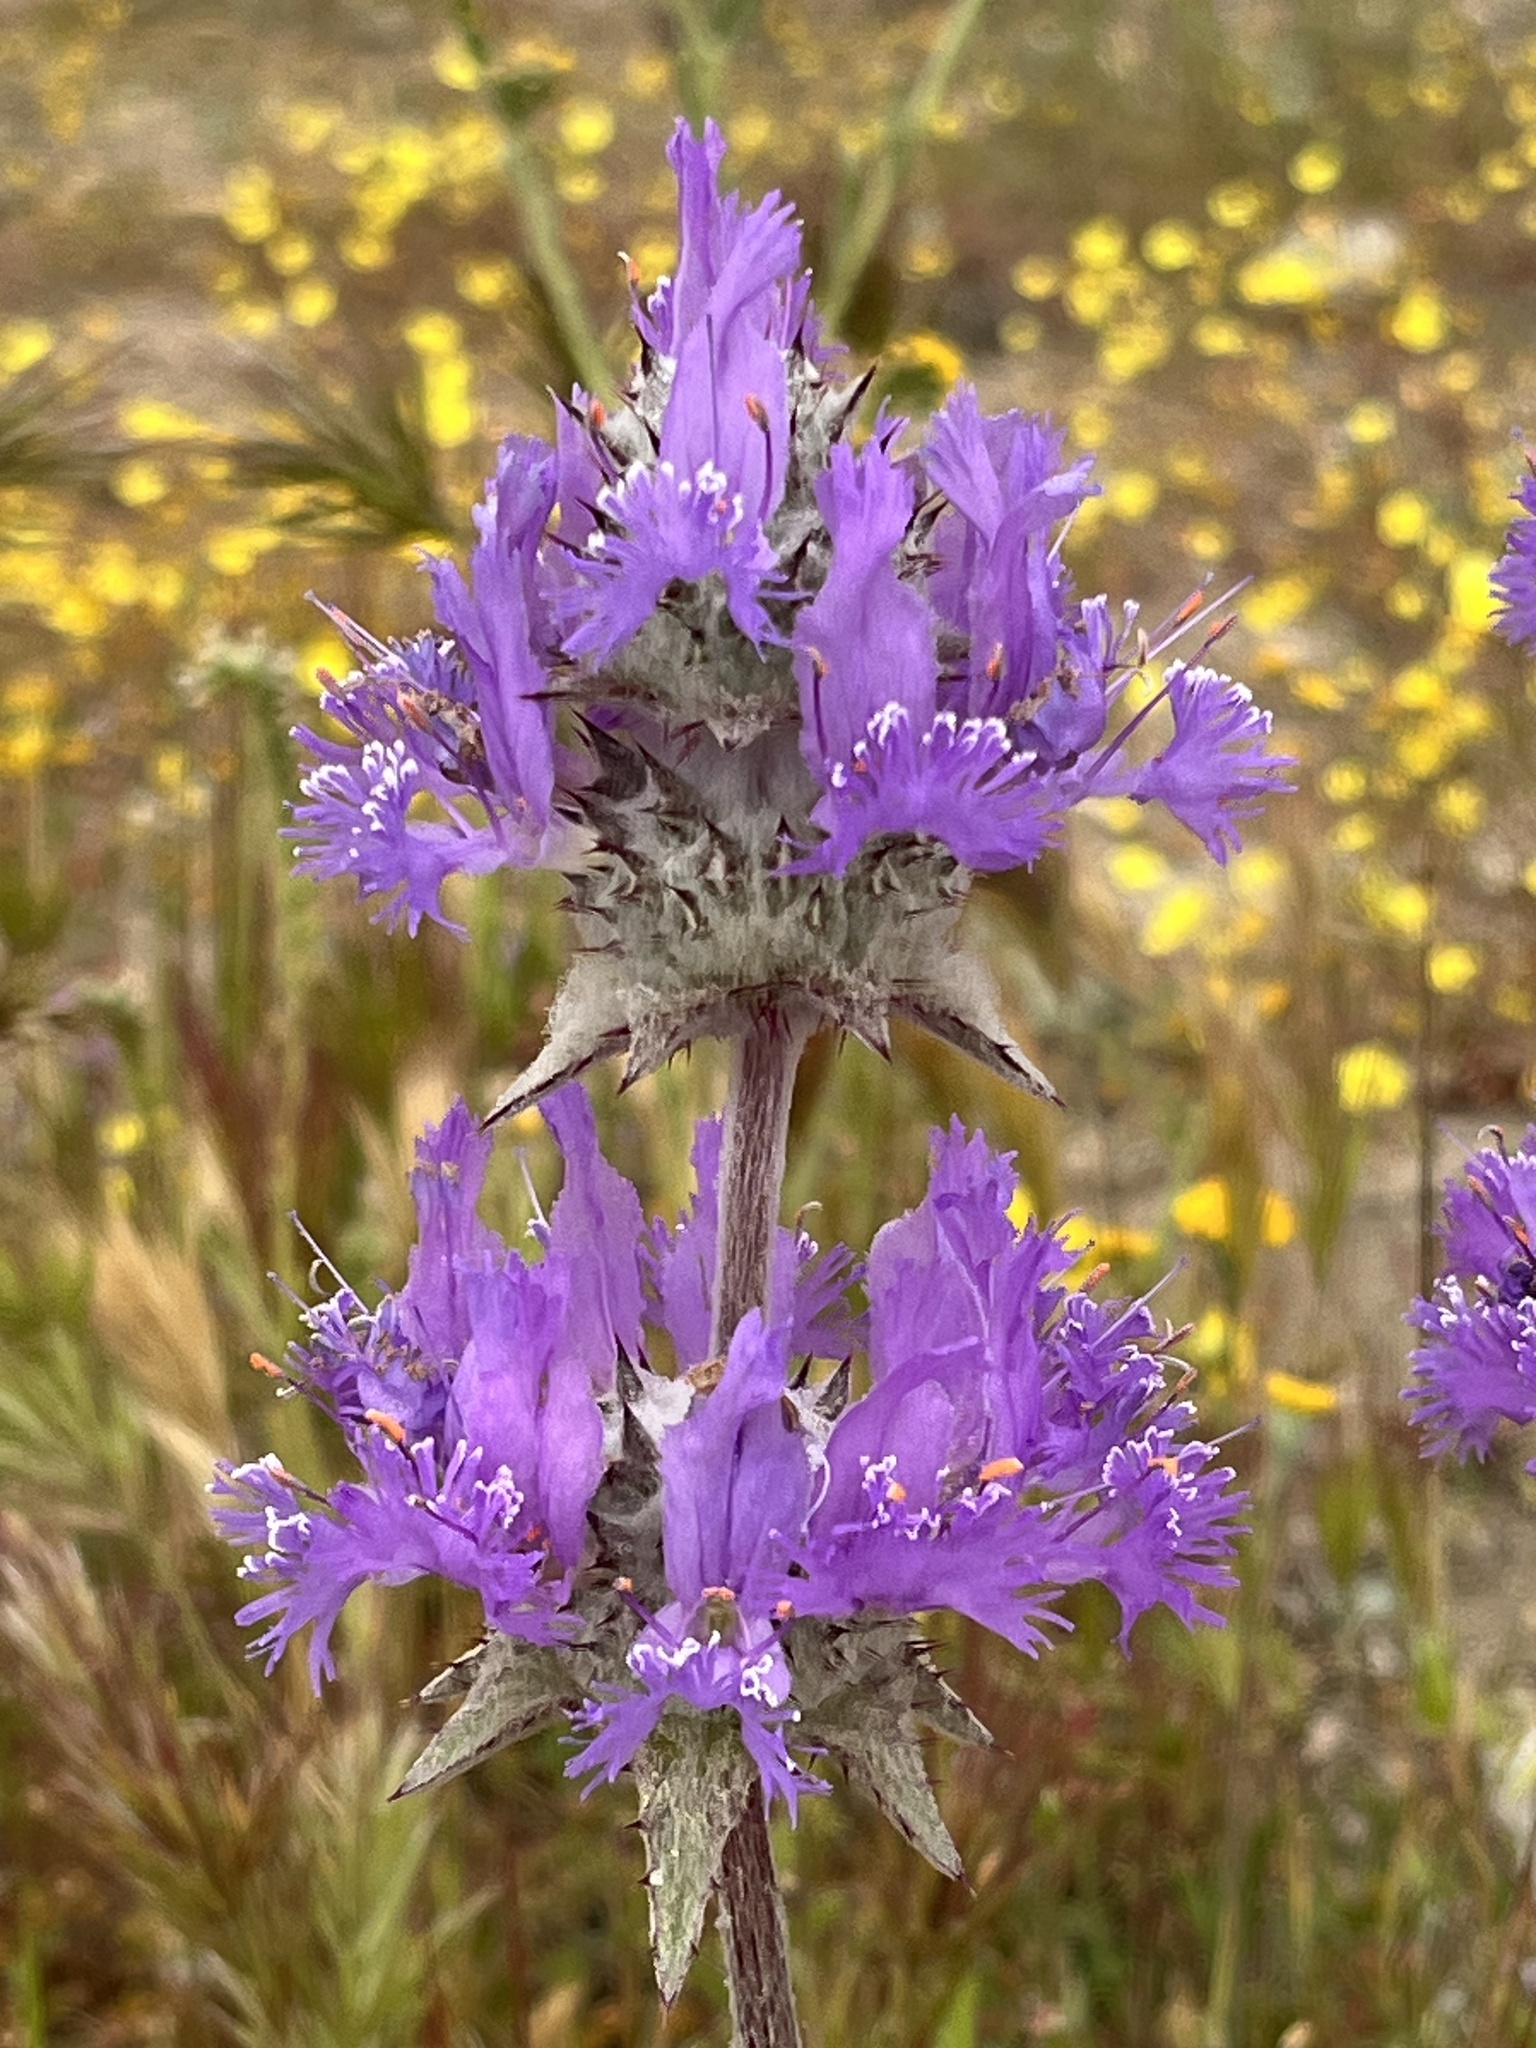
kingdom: Plantae
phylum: Tracheophyta
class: Magnoliopsida
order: Lamiales
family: Lamiaceae
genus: Salvia
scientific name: Salvia carduacea
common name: Thistle sage
